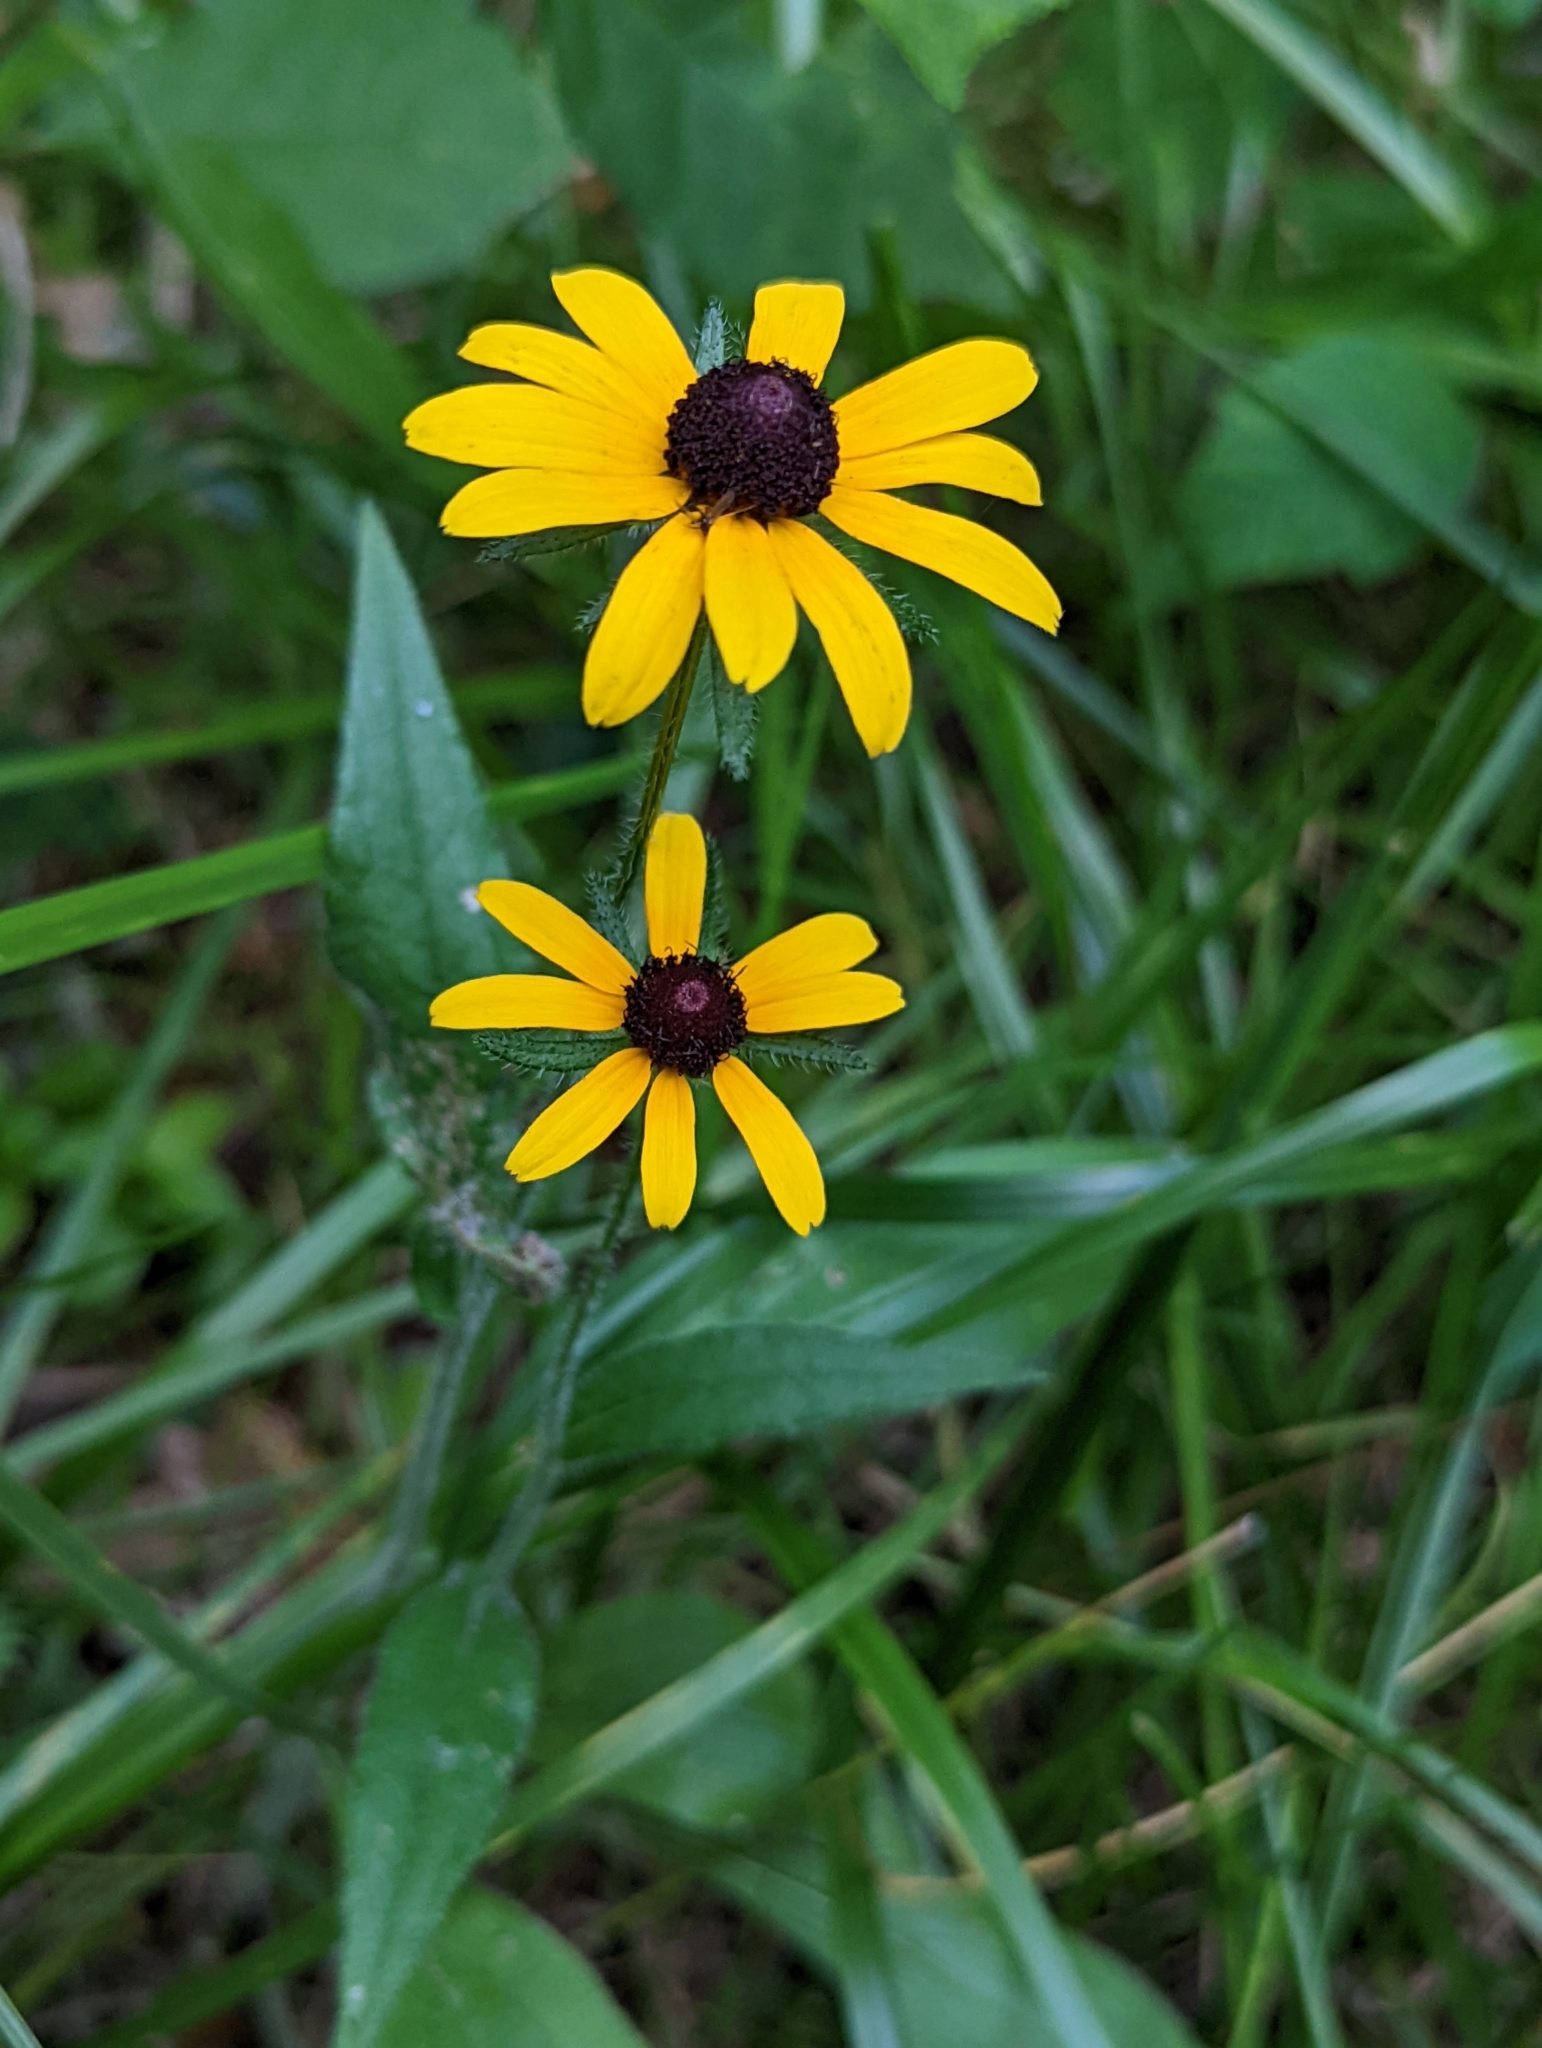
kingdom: Plantae
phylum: Tracheophyta
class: Magnoliopsida
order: Asterales
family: Asteraceae
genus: Rudbeckia
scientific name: Rudbeckia hirta
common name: Black-eyed-susan
